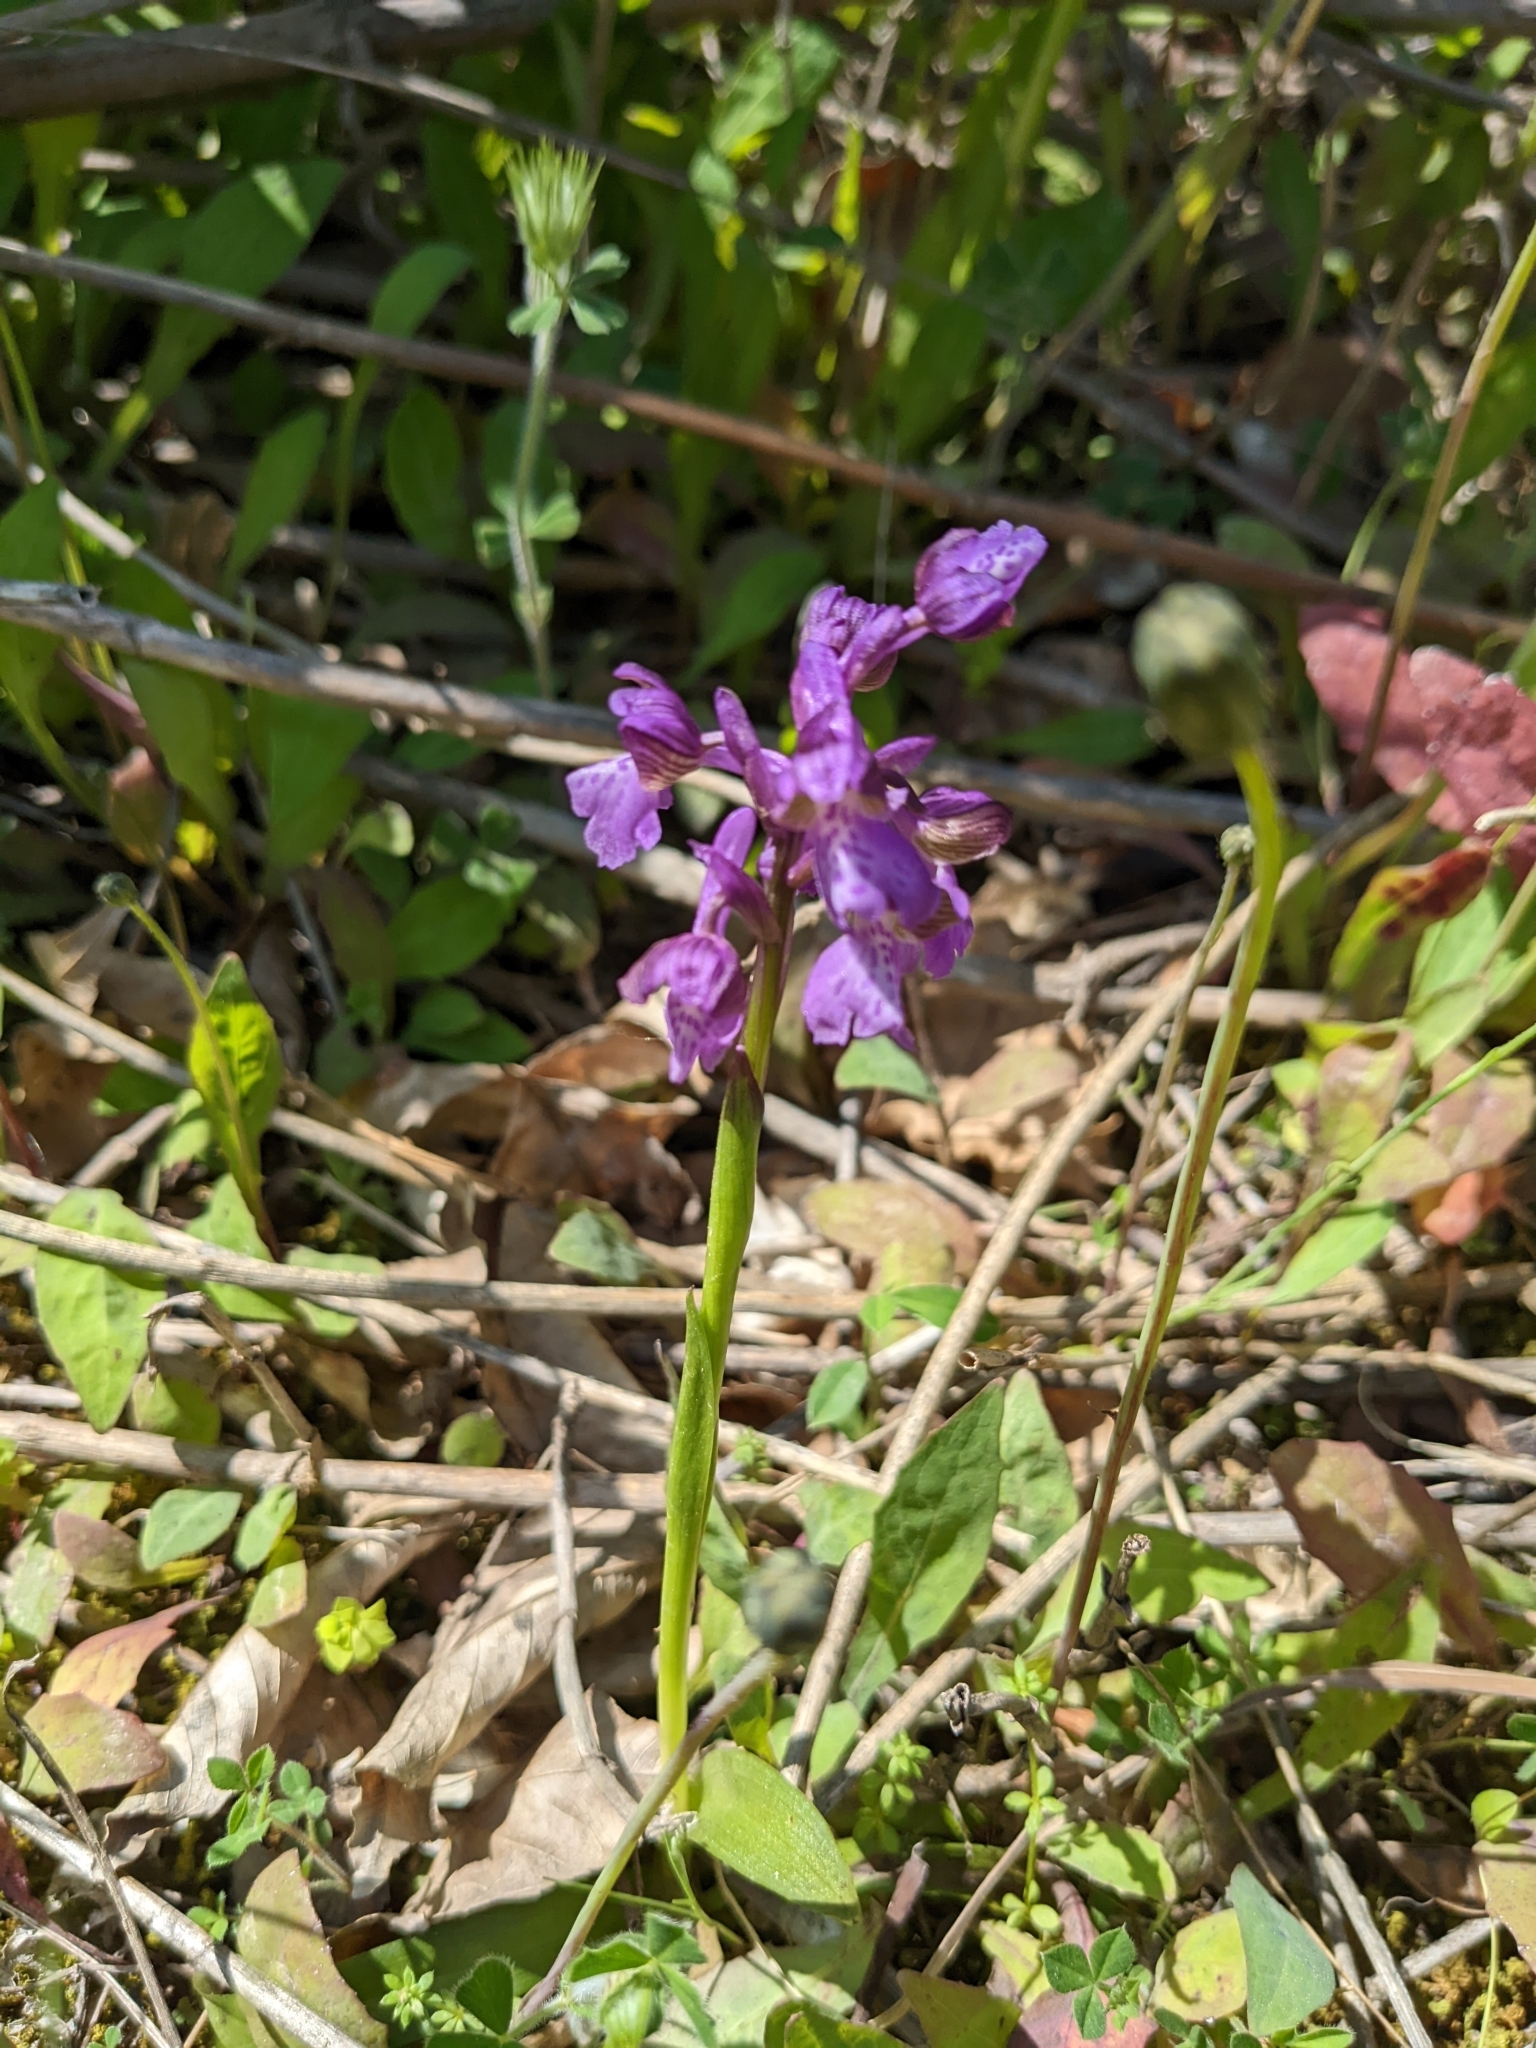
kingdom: Plantae
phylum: Tracheophyta
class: Liliopsida
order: Asparagales
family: Orchidaceae
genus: Anacamptis
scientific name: Anacamptis morio
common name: Green-winged orchid
